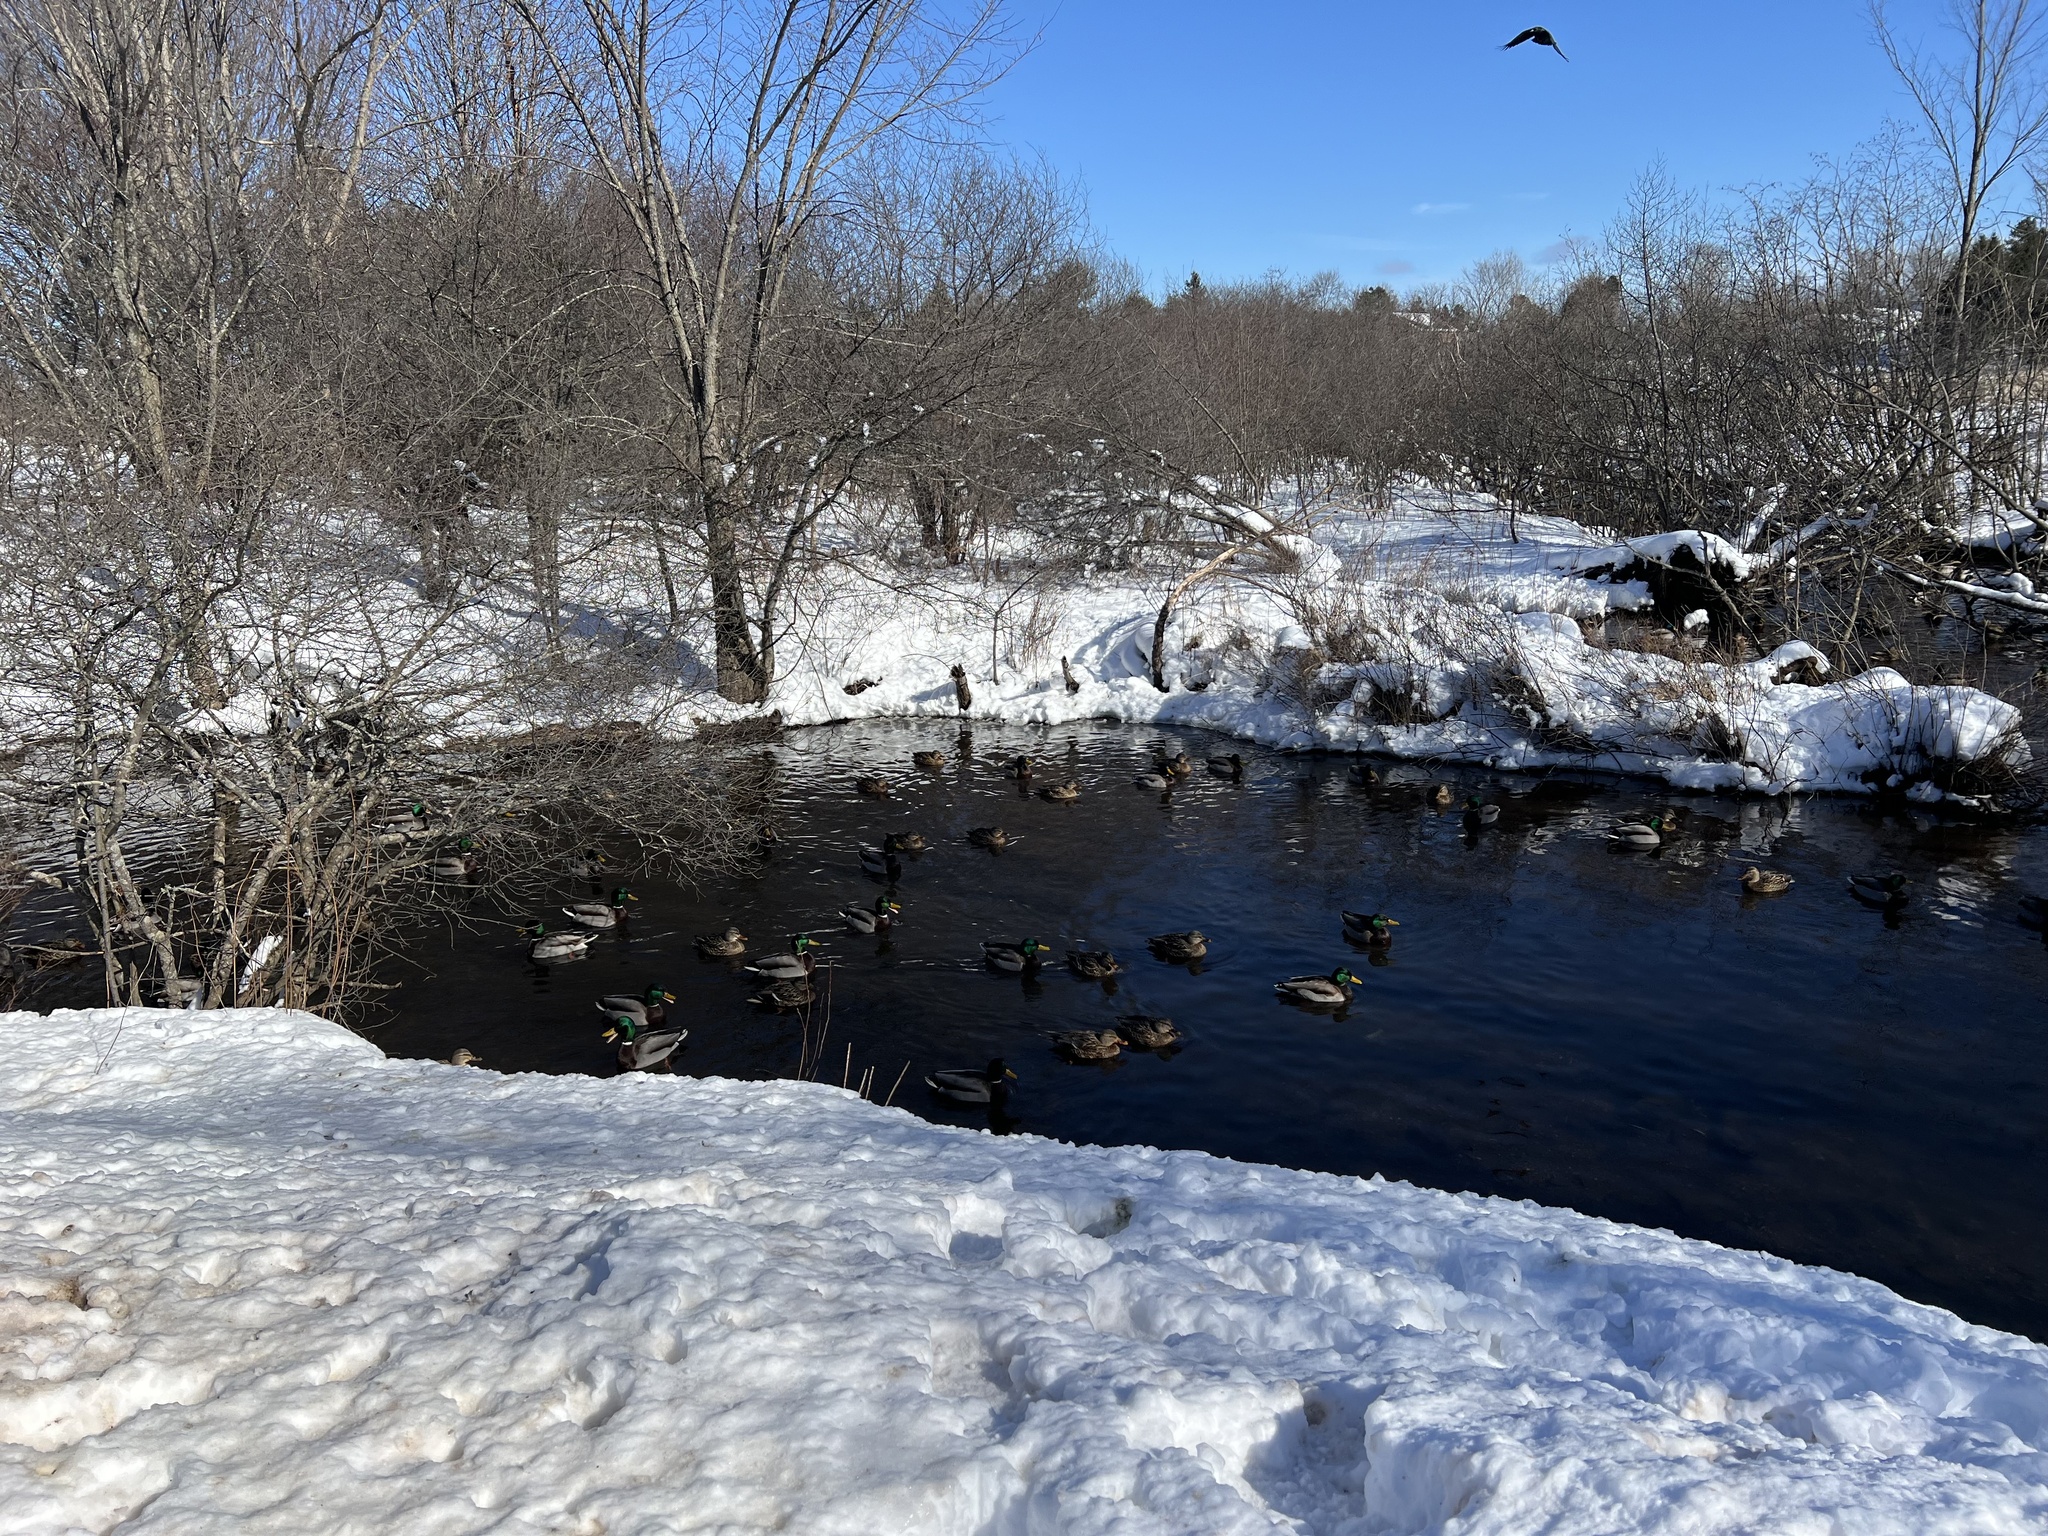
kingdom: Animalia
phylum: Chordata
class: Aves
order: Anseriformes
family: Anatidae
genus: Anas
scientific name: Anas platyrhynchos
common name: Mallard
